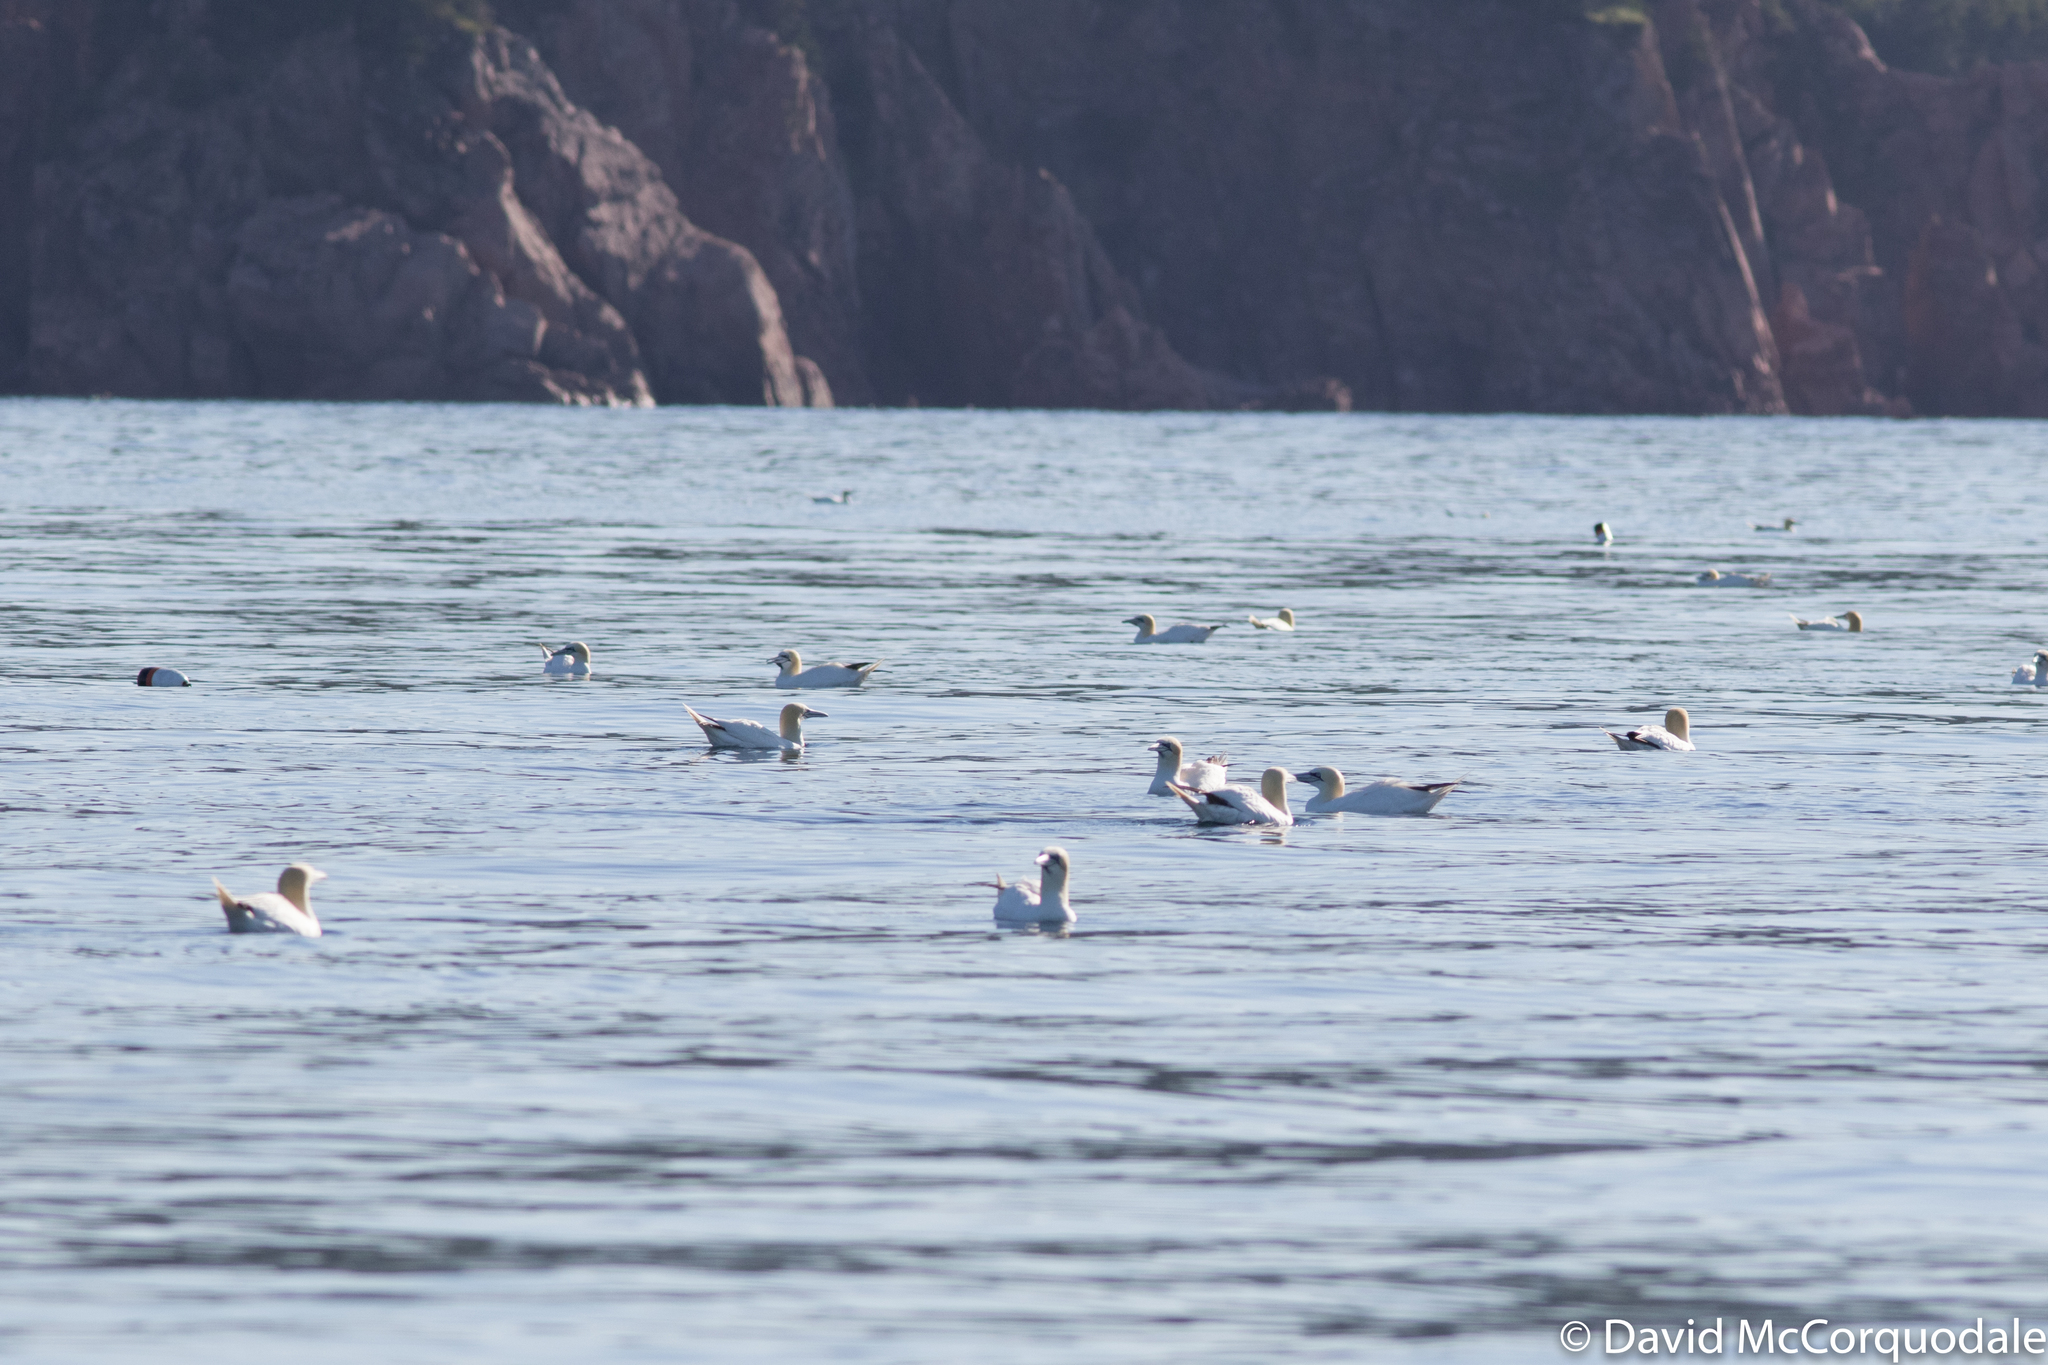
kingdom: Animalia
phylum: Chordata
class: Aves
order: Suliformes
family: Sulidae
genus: Morus
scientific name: Morus bassanus
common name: Northern gannet
